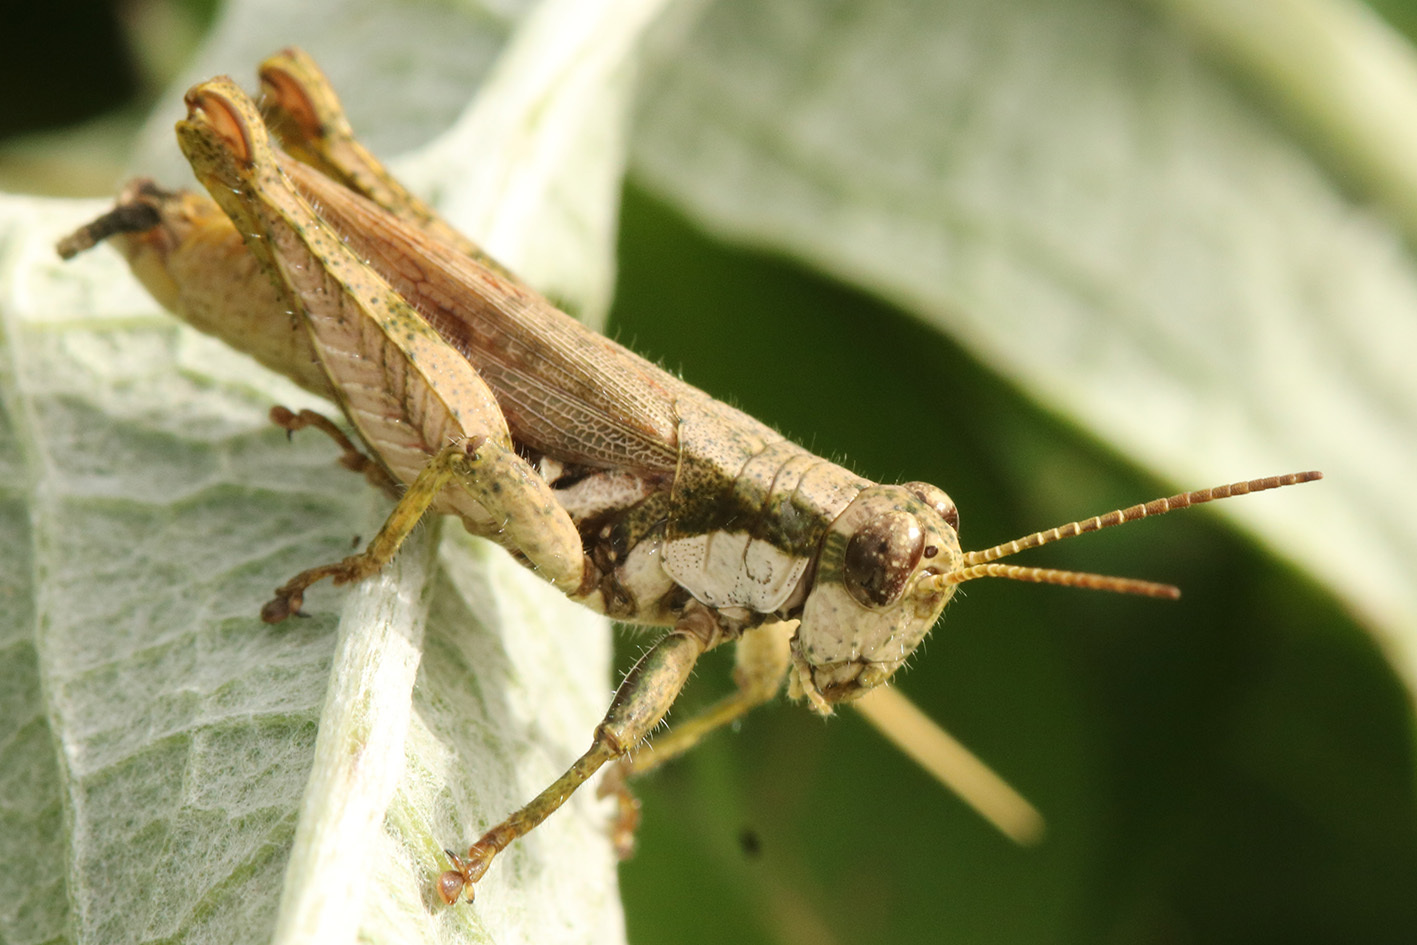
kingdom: Animalia
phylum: Arthropoda
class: Insecta
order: Orthoptera
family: Acrididae
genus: Ronderosia
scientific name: Ronderosia bergii
